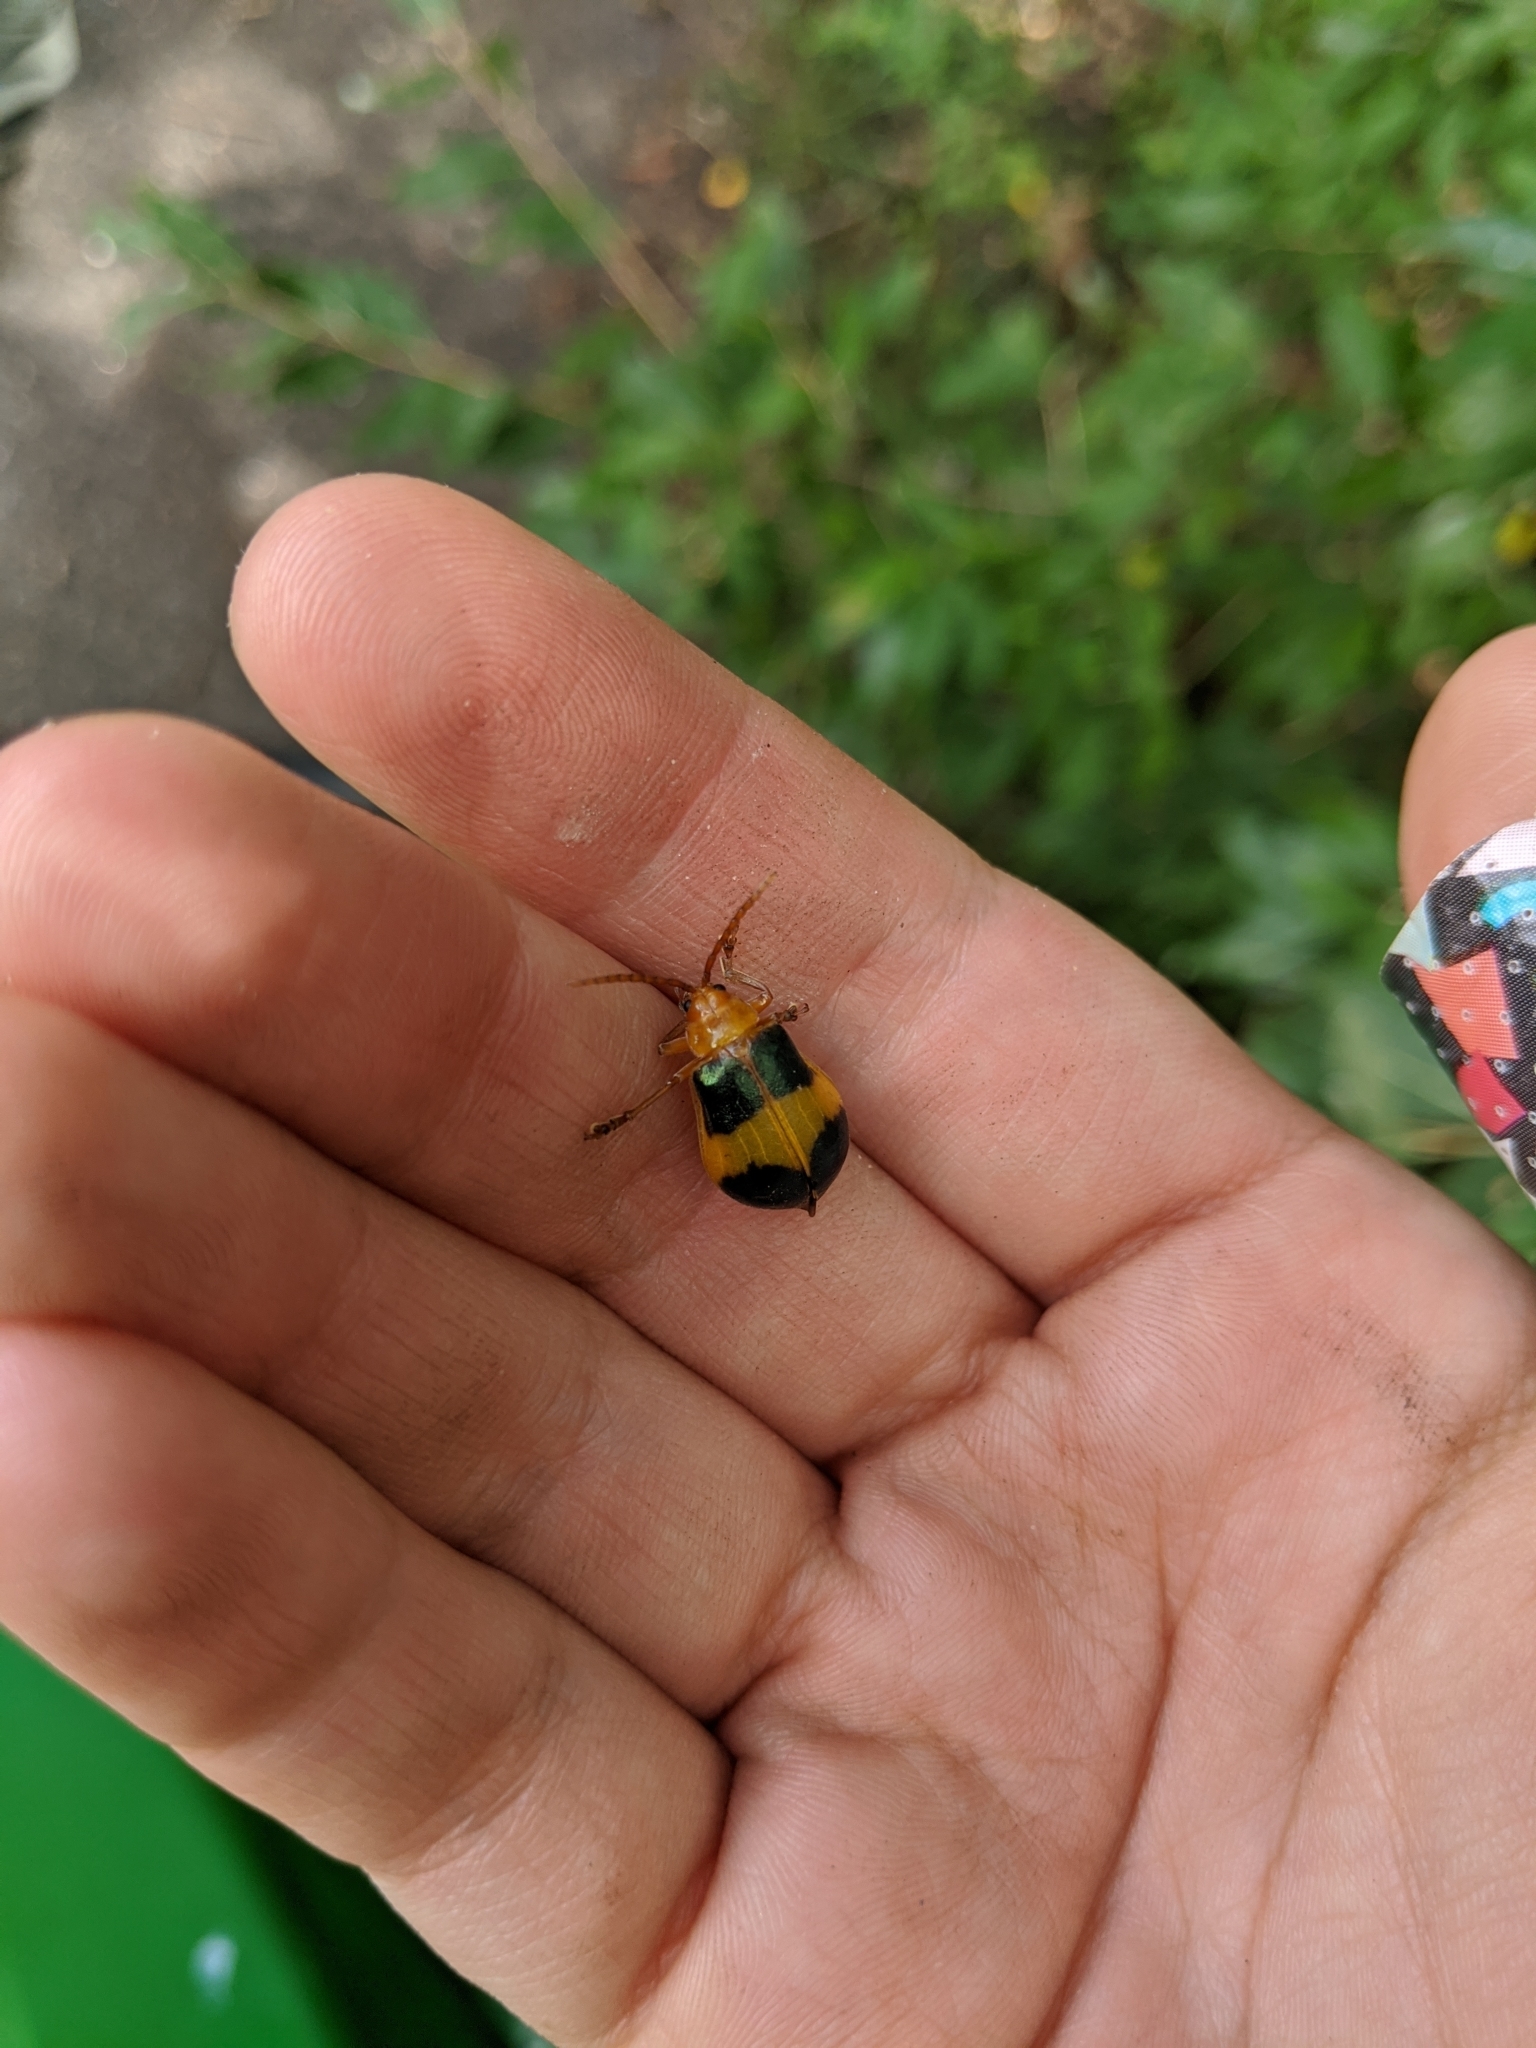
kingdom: Animalia
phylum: Arthropoda
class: Insecta
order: Coleoptera
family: Chrysomelidae
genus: Monocesta
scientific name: Monocesta coryli
